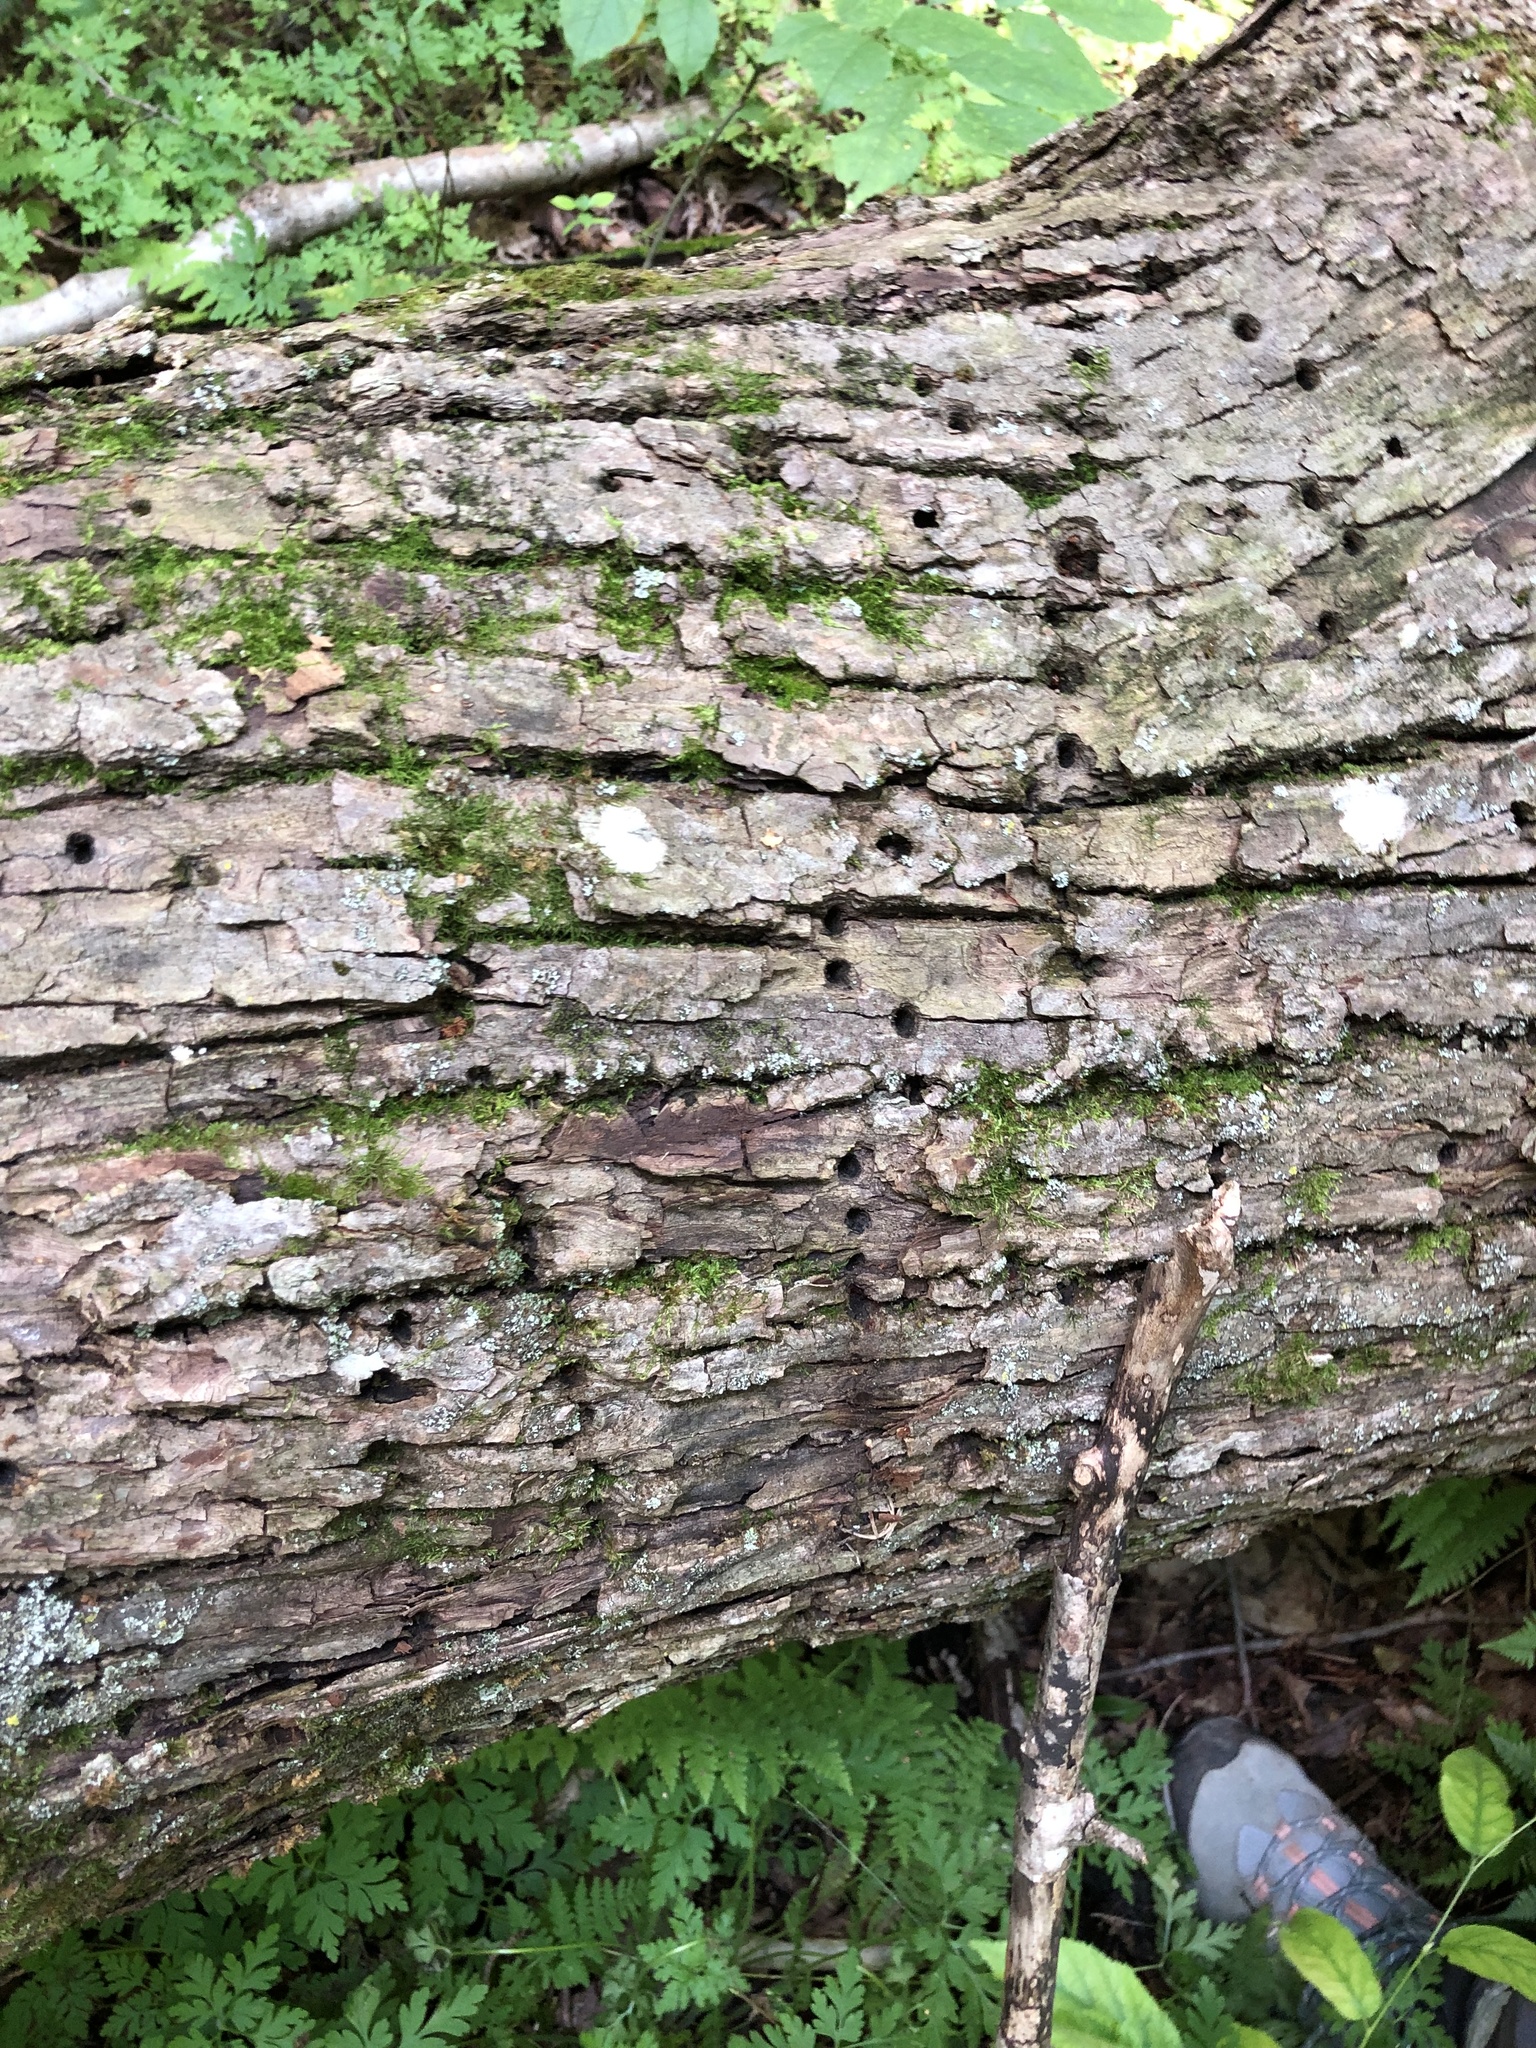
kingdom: Animalia
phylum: Chordata
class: Aves
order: Piciformes
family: Picidae
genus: Sphyrapicus
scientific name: Sphyrapicus varius
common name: Yellow-bellied sapsucker
